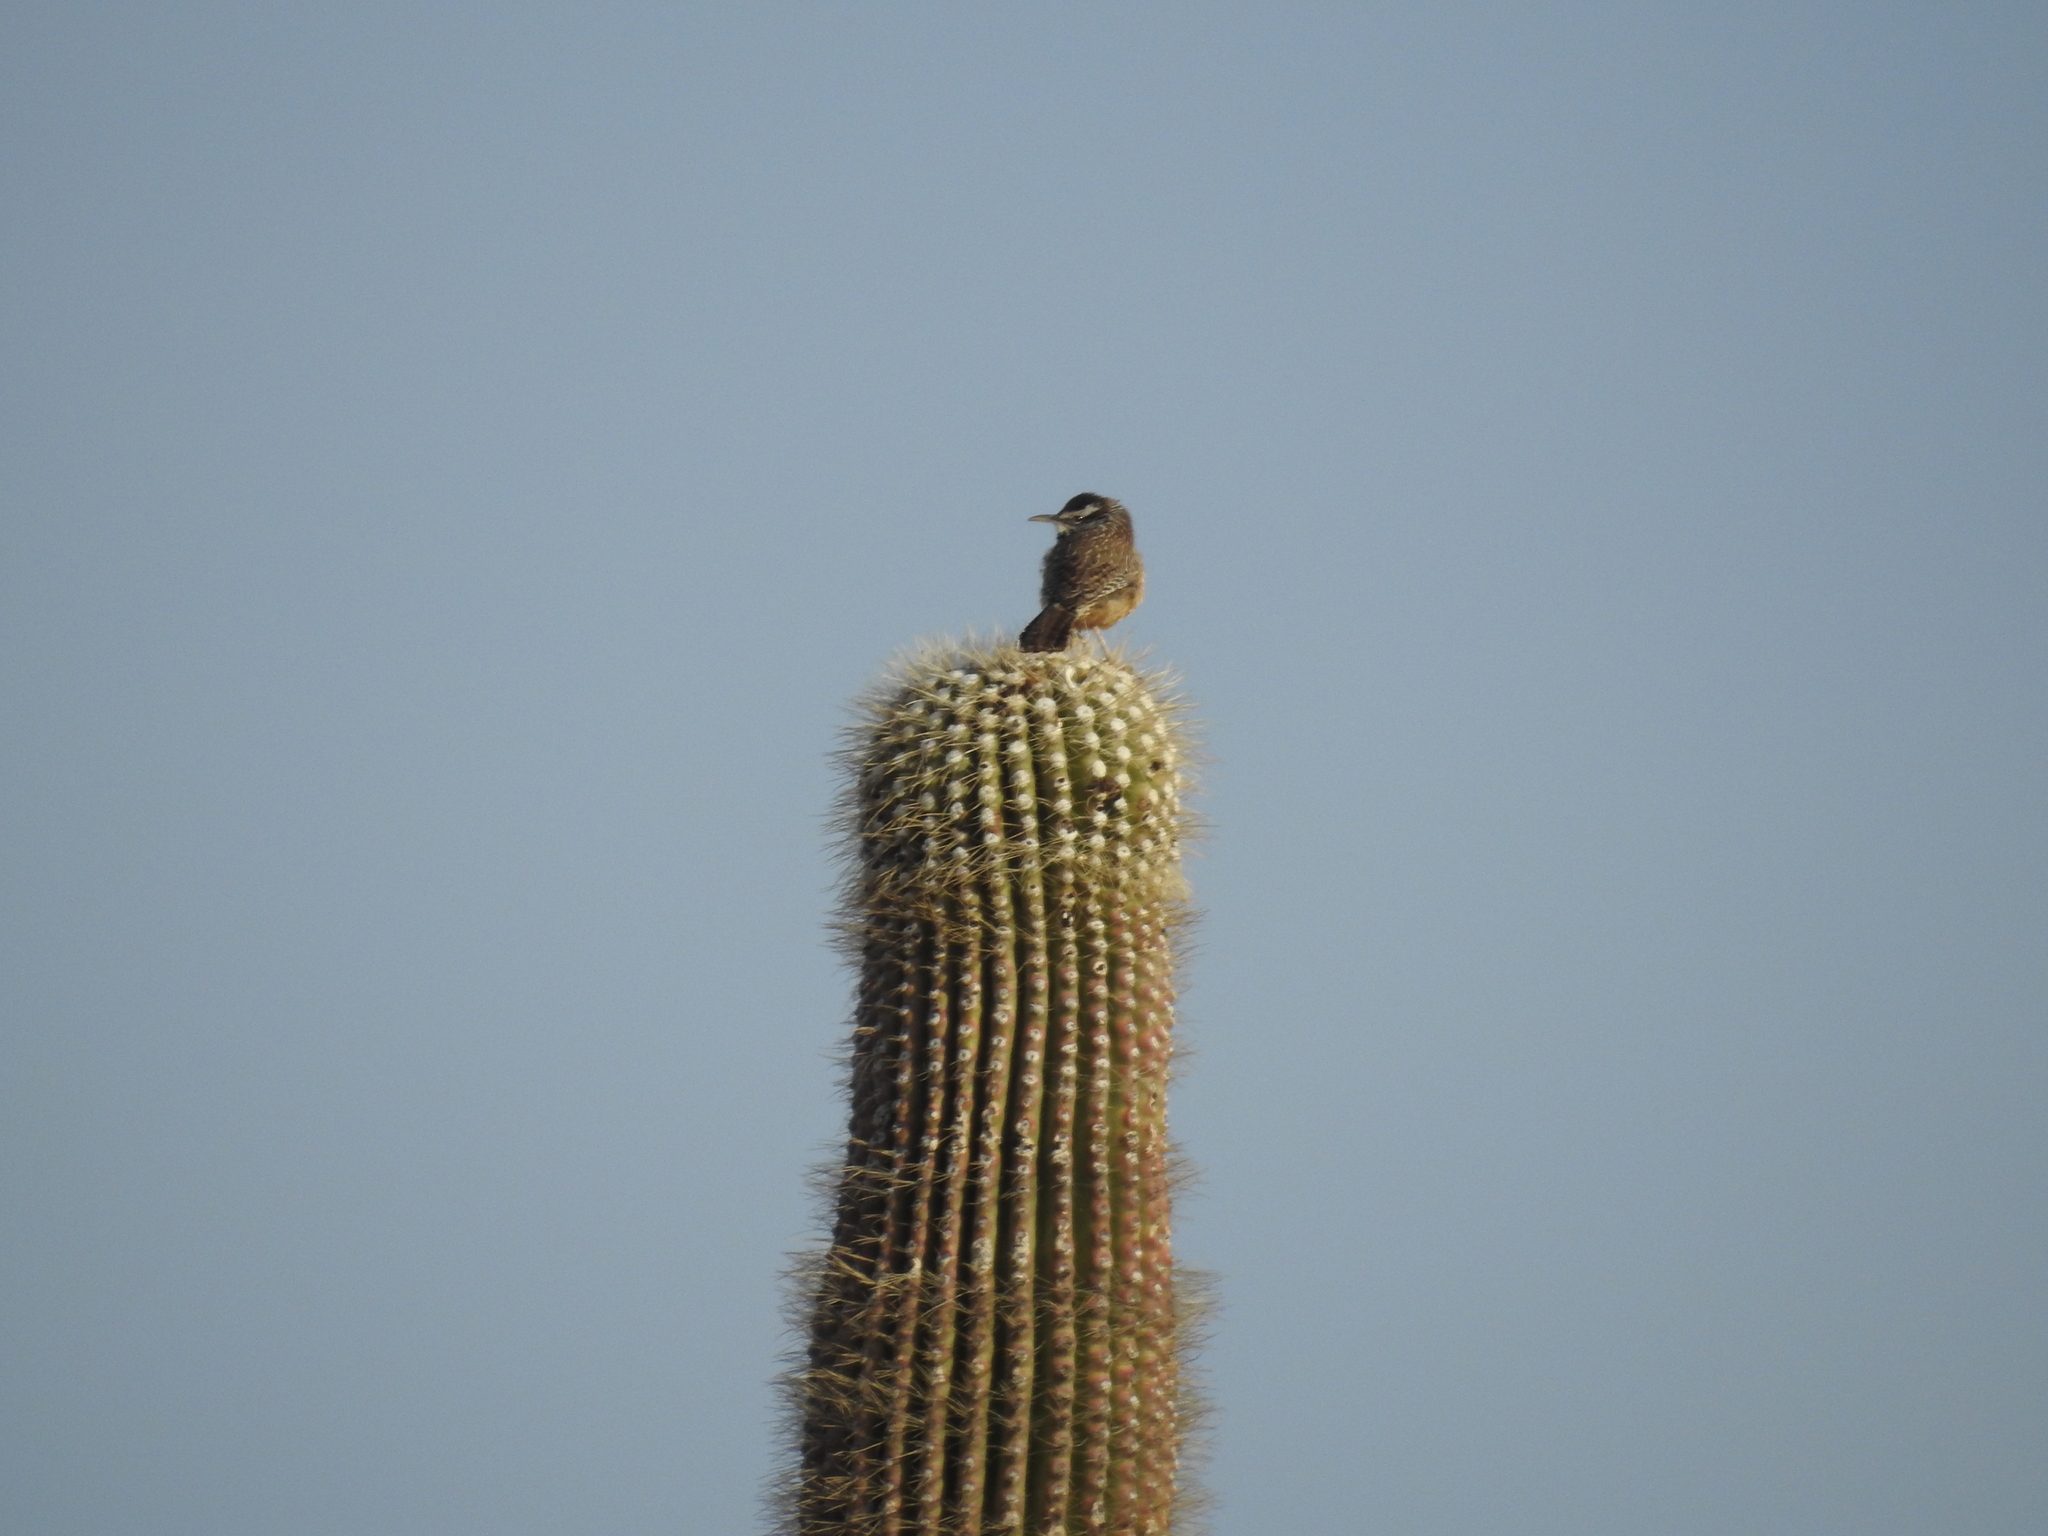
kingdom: Animalia
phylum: Chordata
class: Aves
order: Passeriformes
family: Troglodytidae
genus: Campylorhynchus
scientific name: Campylorhynchus brunneicapillus
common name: Cactus wren
